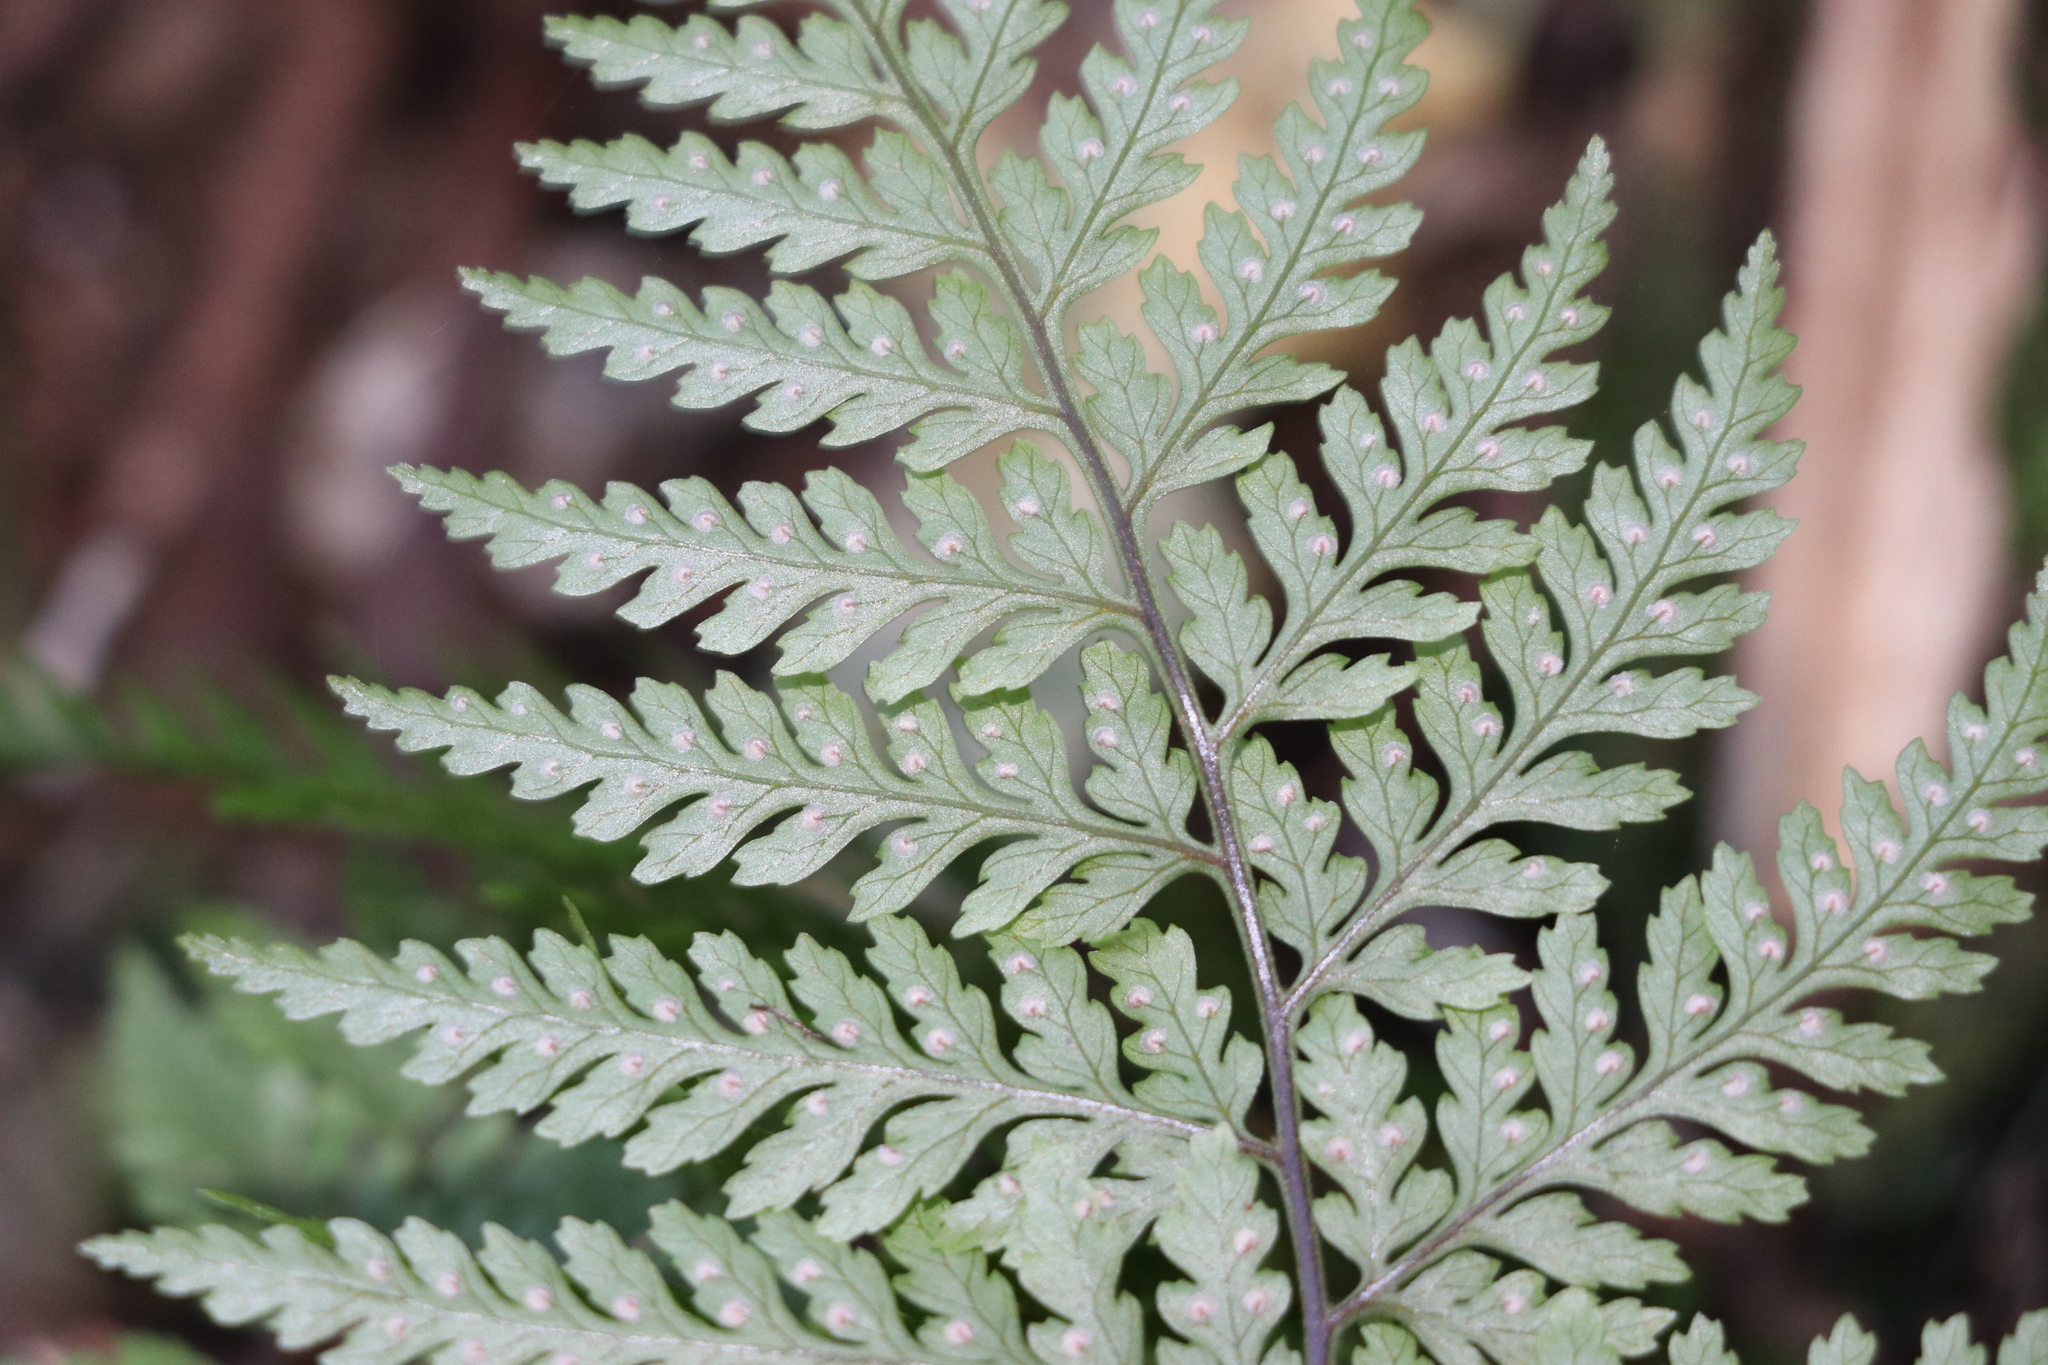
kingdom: Plantae
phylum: Tracheophyta
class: Polypodiopsida
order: Polypodiales
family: Dryopteridaceae
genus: Parapolystichum
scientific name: Parapolystichum glabellum
